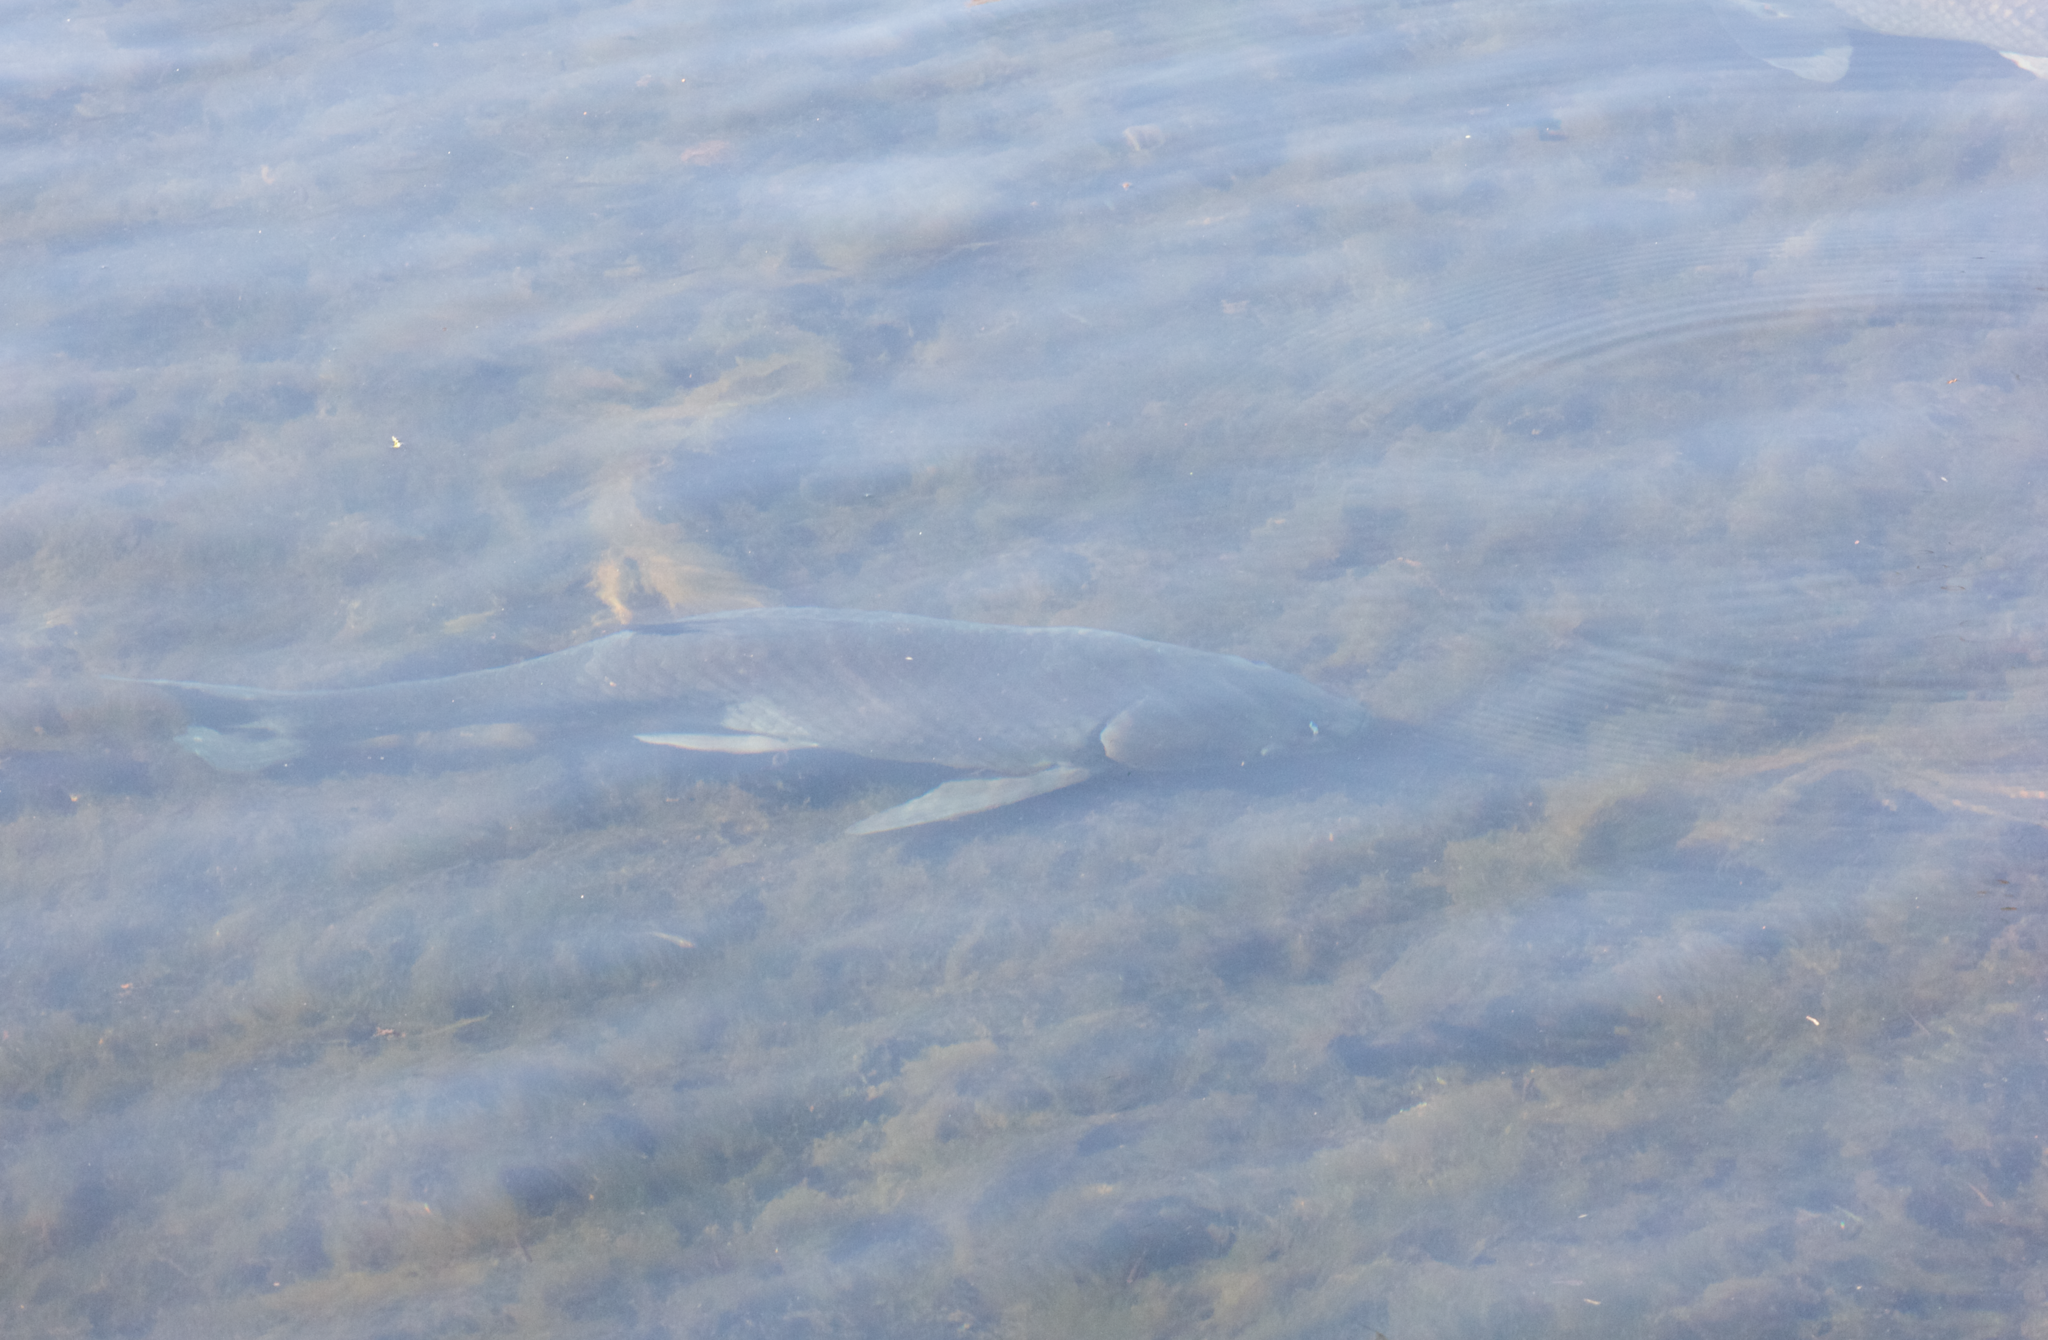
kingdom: Animalia
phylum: Chordata
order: Cypriniformes
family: Cyprinidae
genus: Ctenopharyngodon
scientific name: Ctenopharyngodon idella
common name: Grass carp
